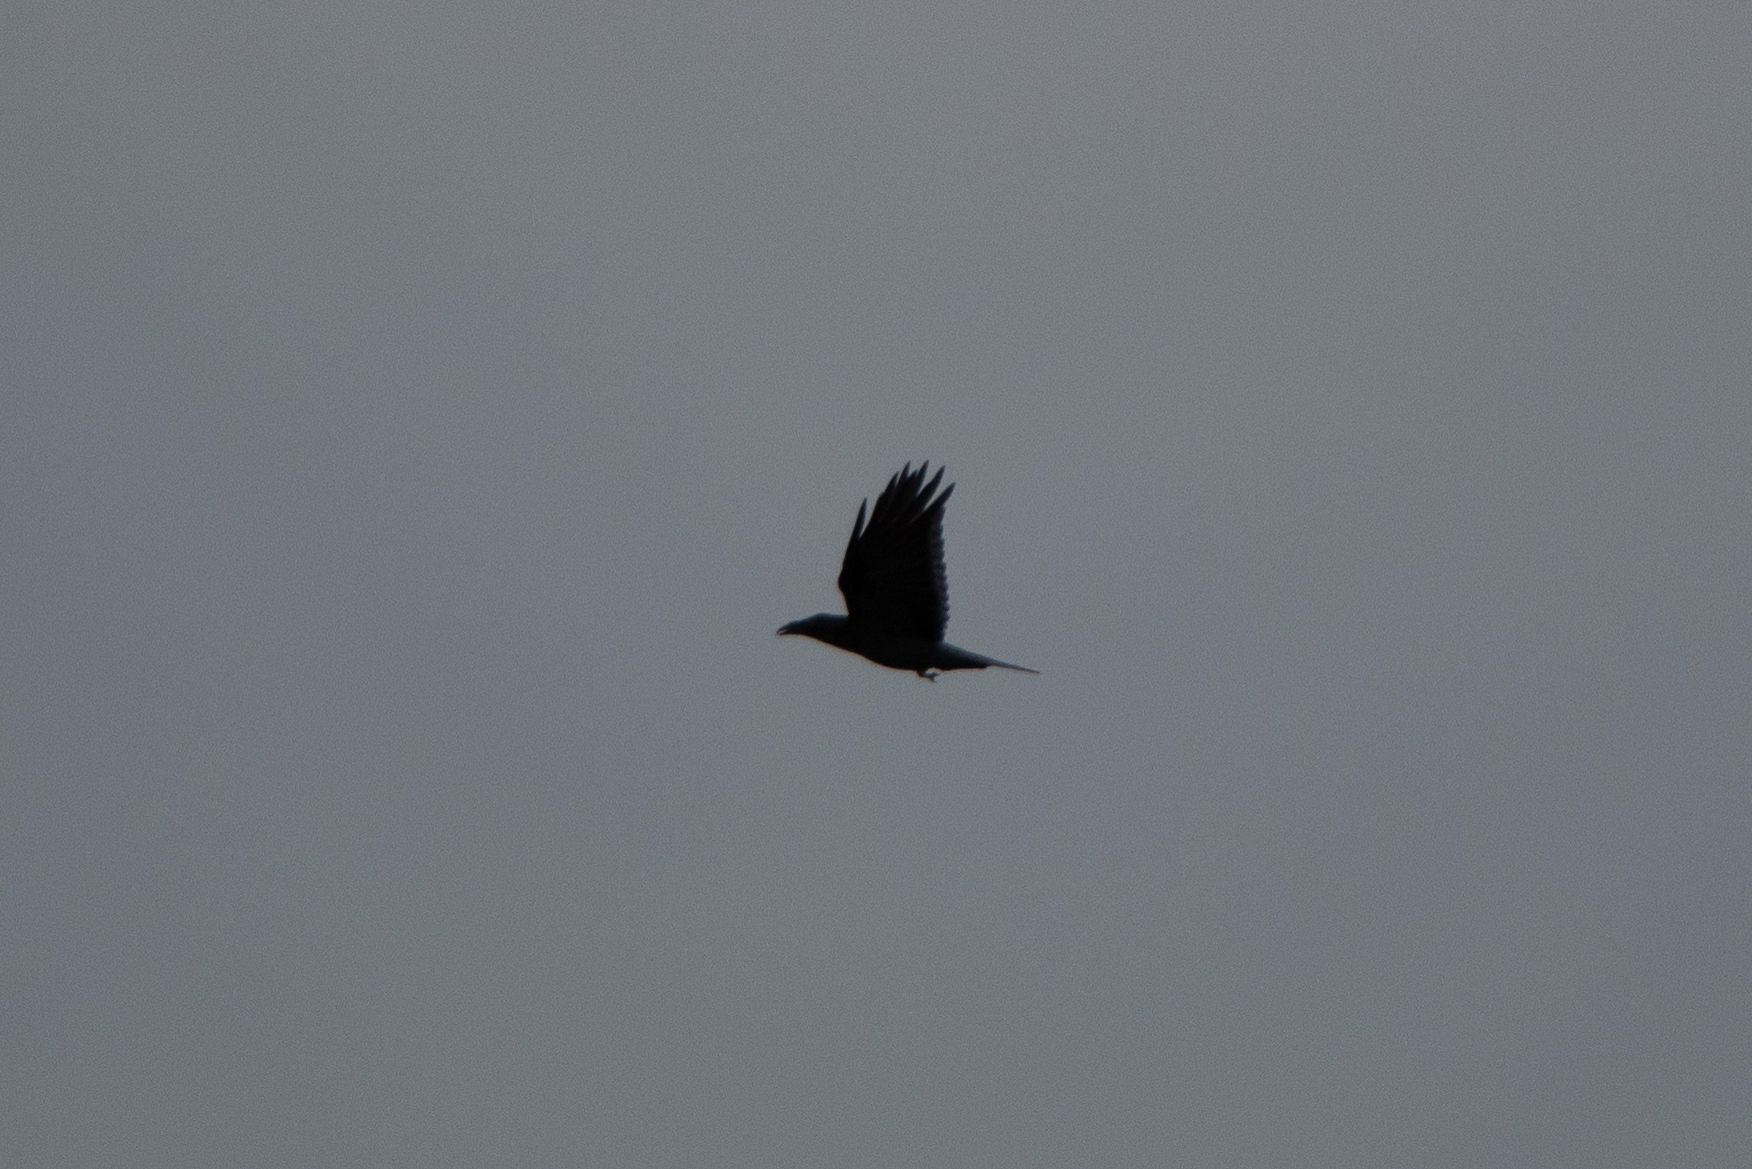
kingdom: Animalia
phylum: Chordata
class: Aves
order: Passeriformes
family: Corvidae
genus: Corvus
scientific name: Corvus corax
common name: Common raven
